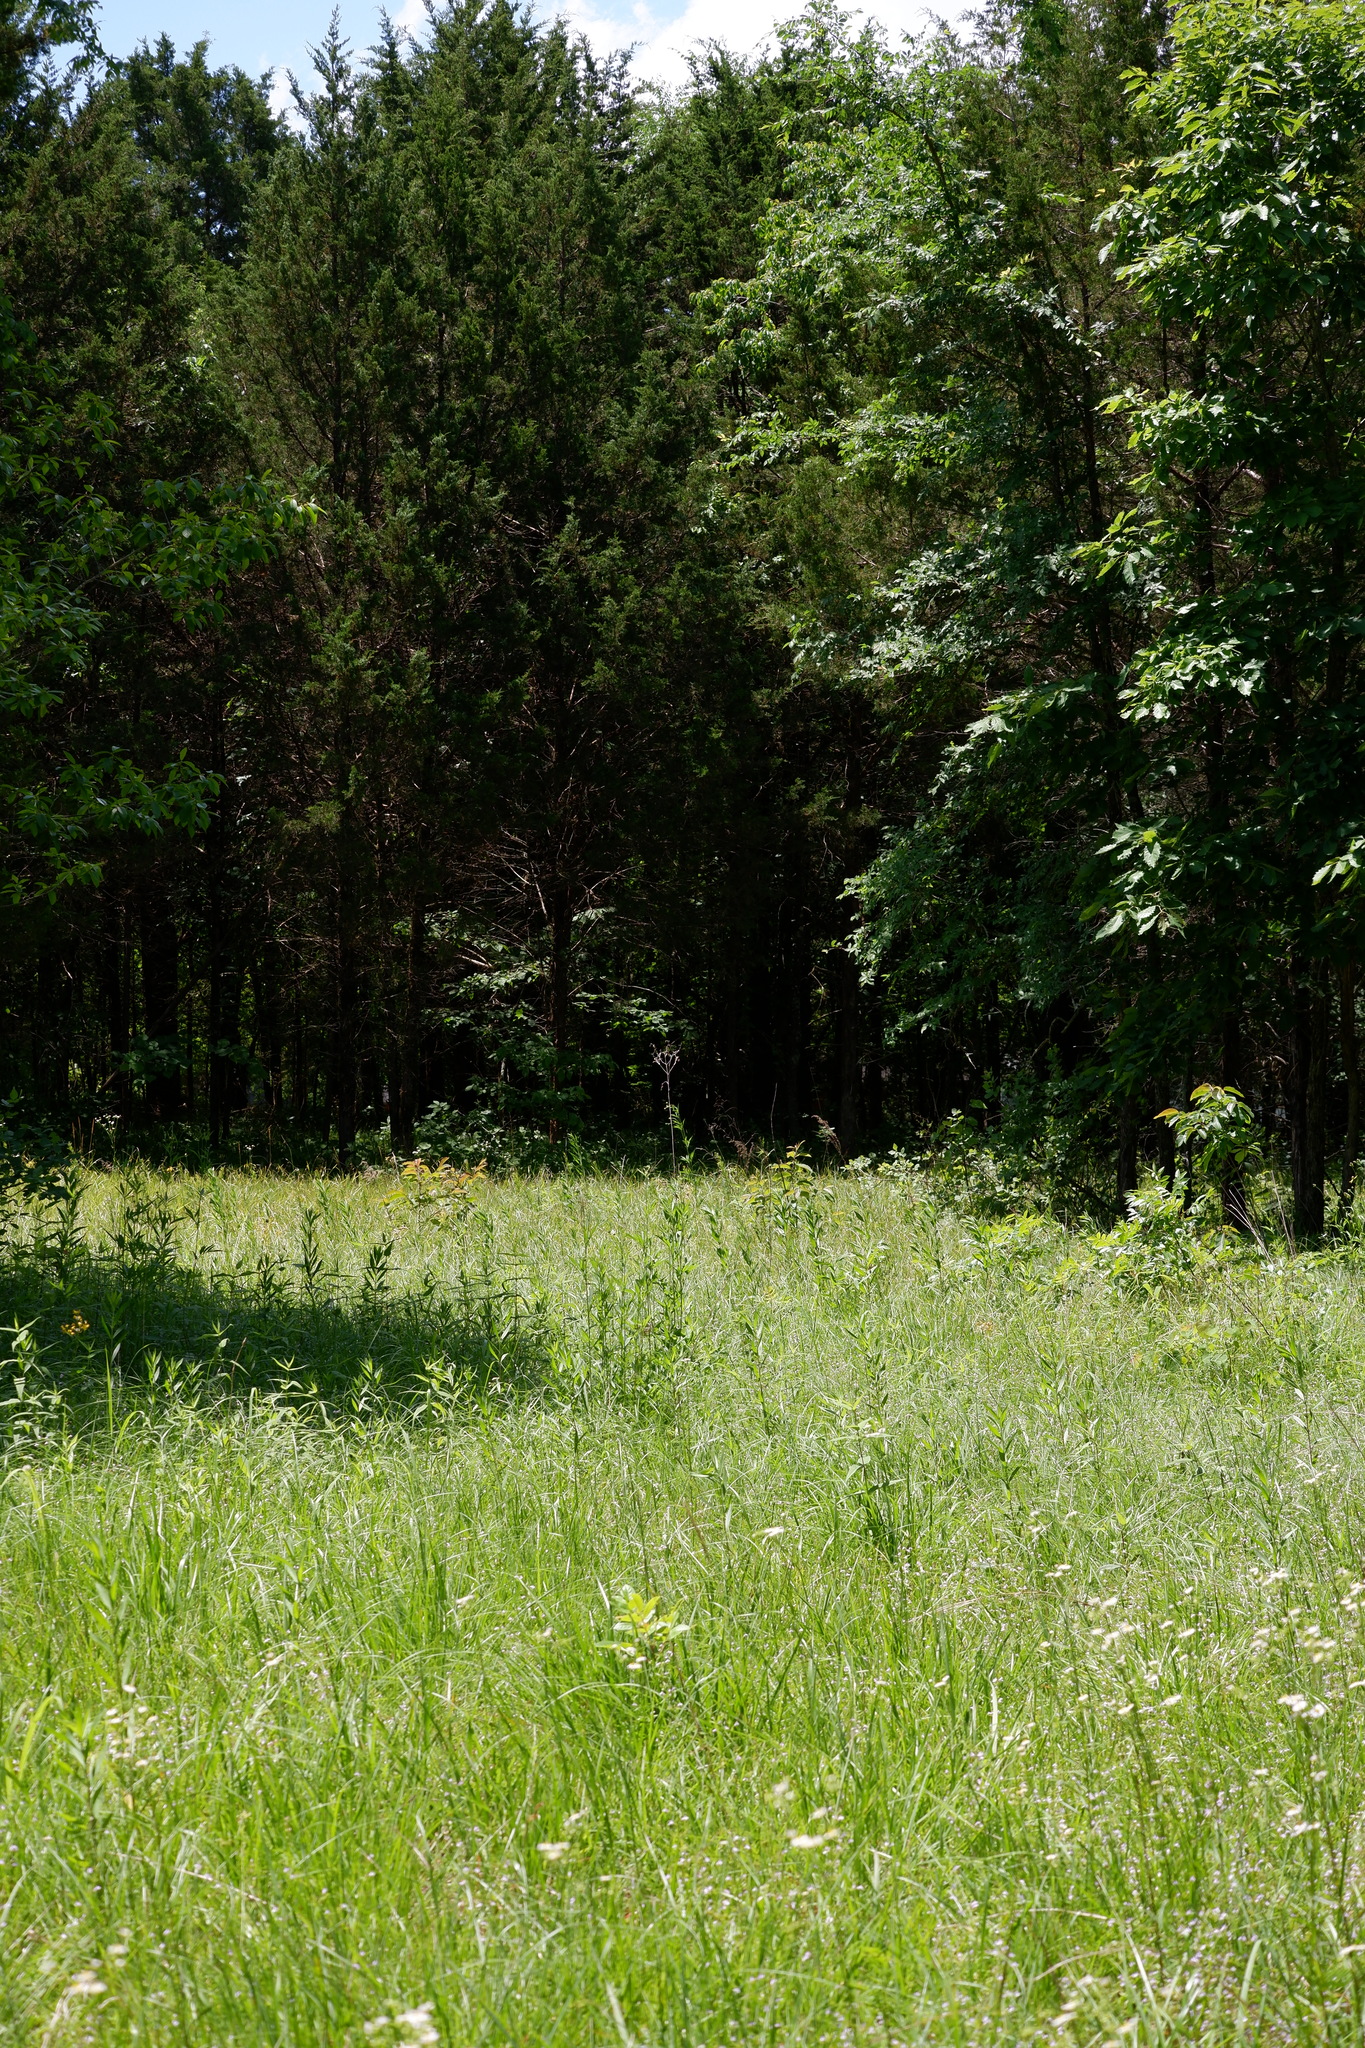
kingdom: Plantae
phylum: Tracheophyta
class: Pinopsida
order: Pinales
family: Cupressaceae
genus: Juniperus
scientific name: Juniperus virginiana
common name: Red juniper
